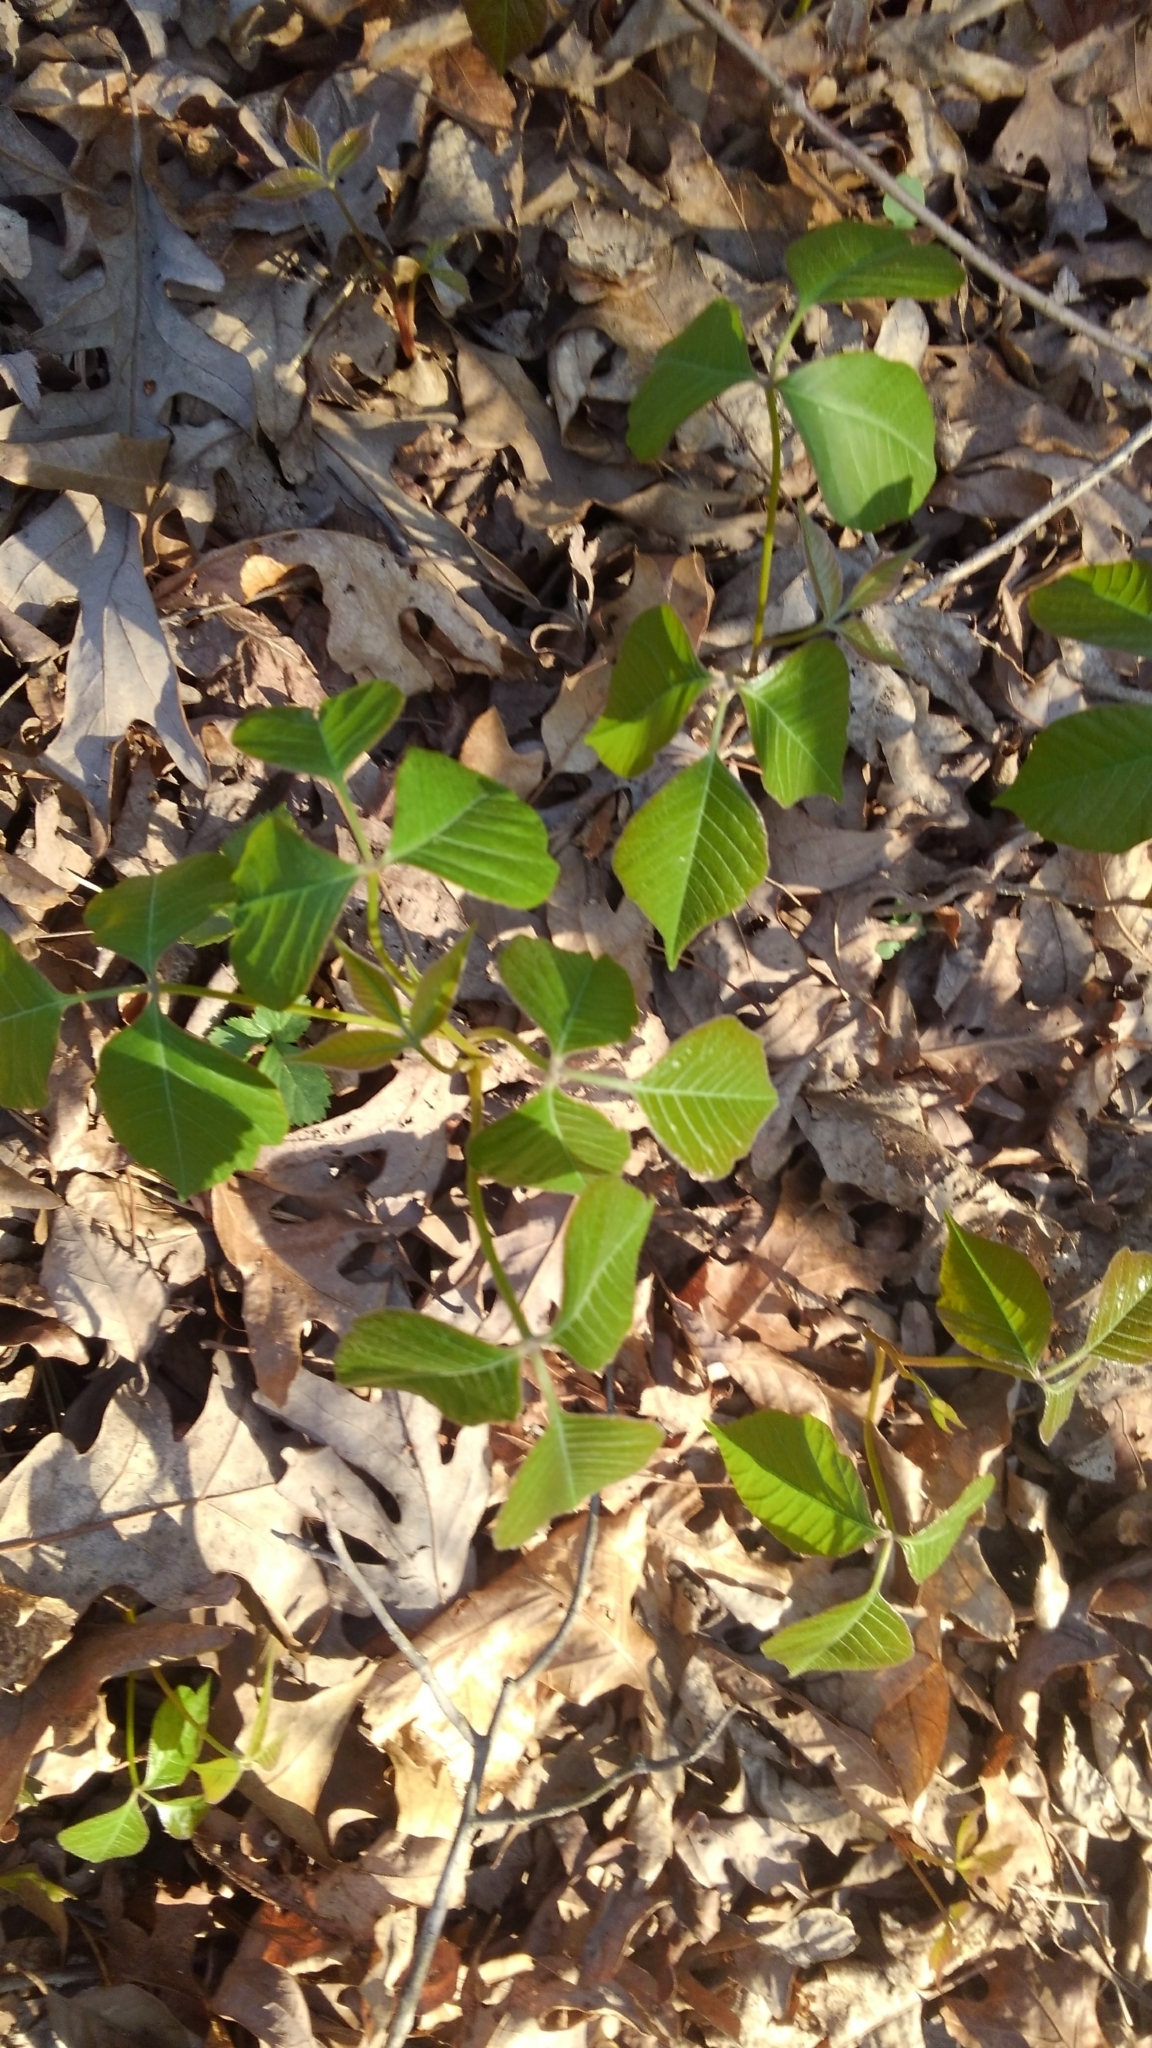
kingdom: Plantae
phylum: Tracheophyta
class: Magnoliopsida
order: Sapindales
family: Anacardiaceae
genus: Toxicodendron
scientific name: Toxicodendron radicans
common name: Poison ivy
